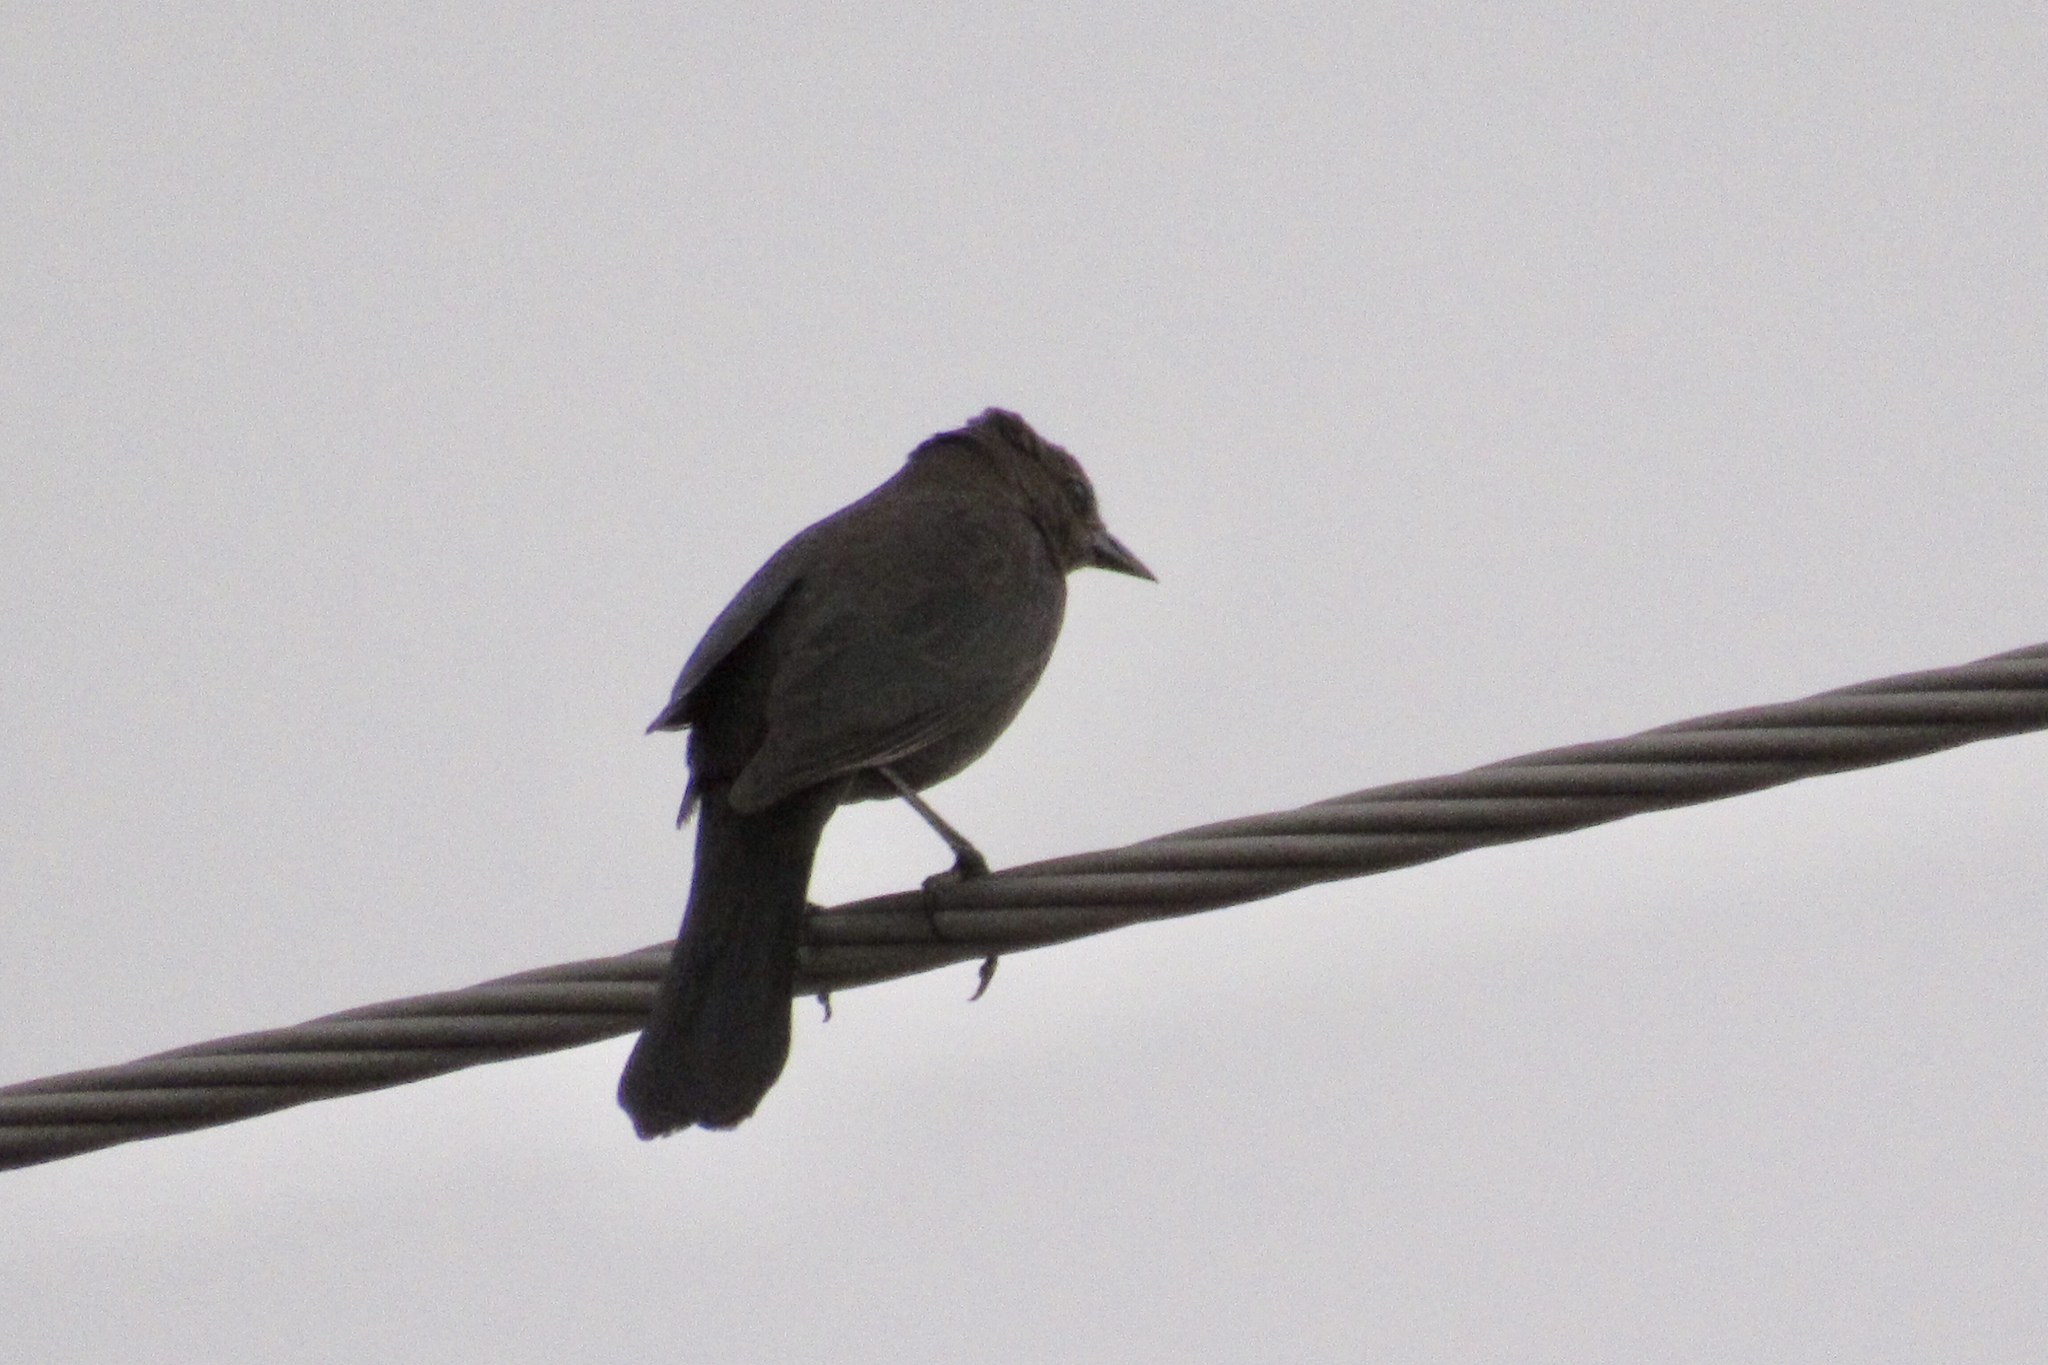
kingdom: Animalia
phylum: Chordata
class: Aves
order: Passeriformes
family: Icteridae
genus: Euphagus
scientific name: Euphagus cyanocephalus
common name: Brewer's blackbird
